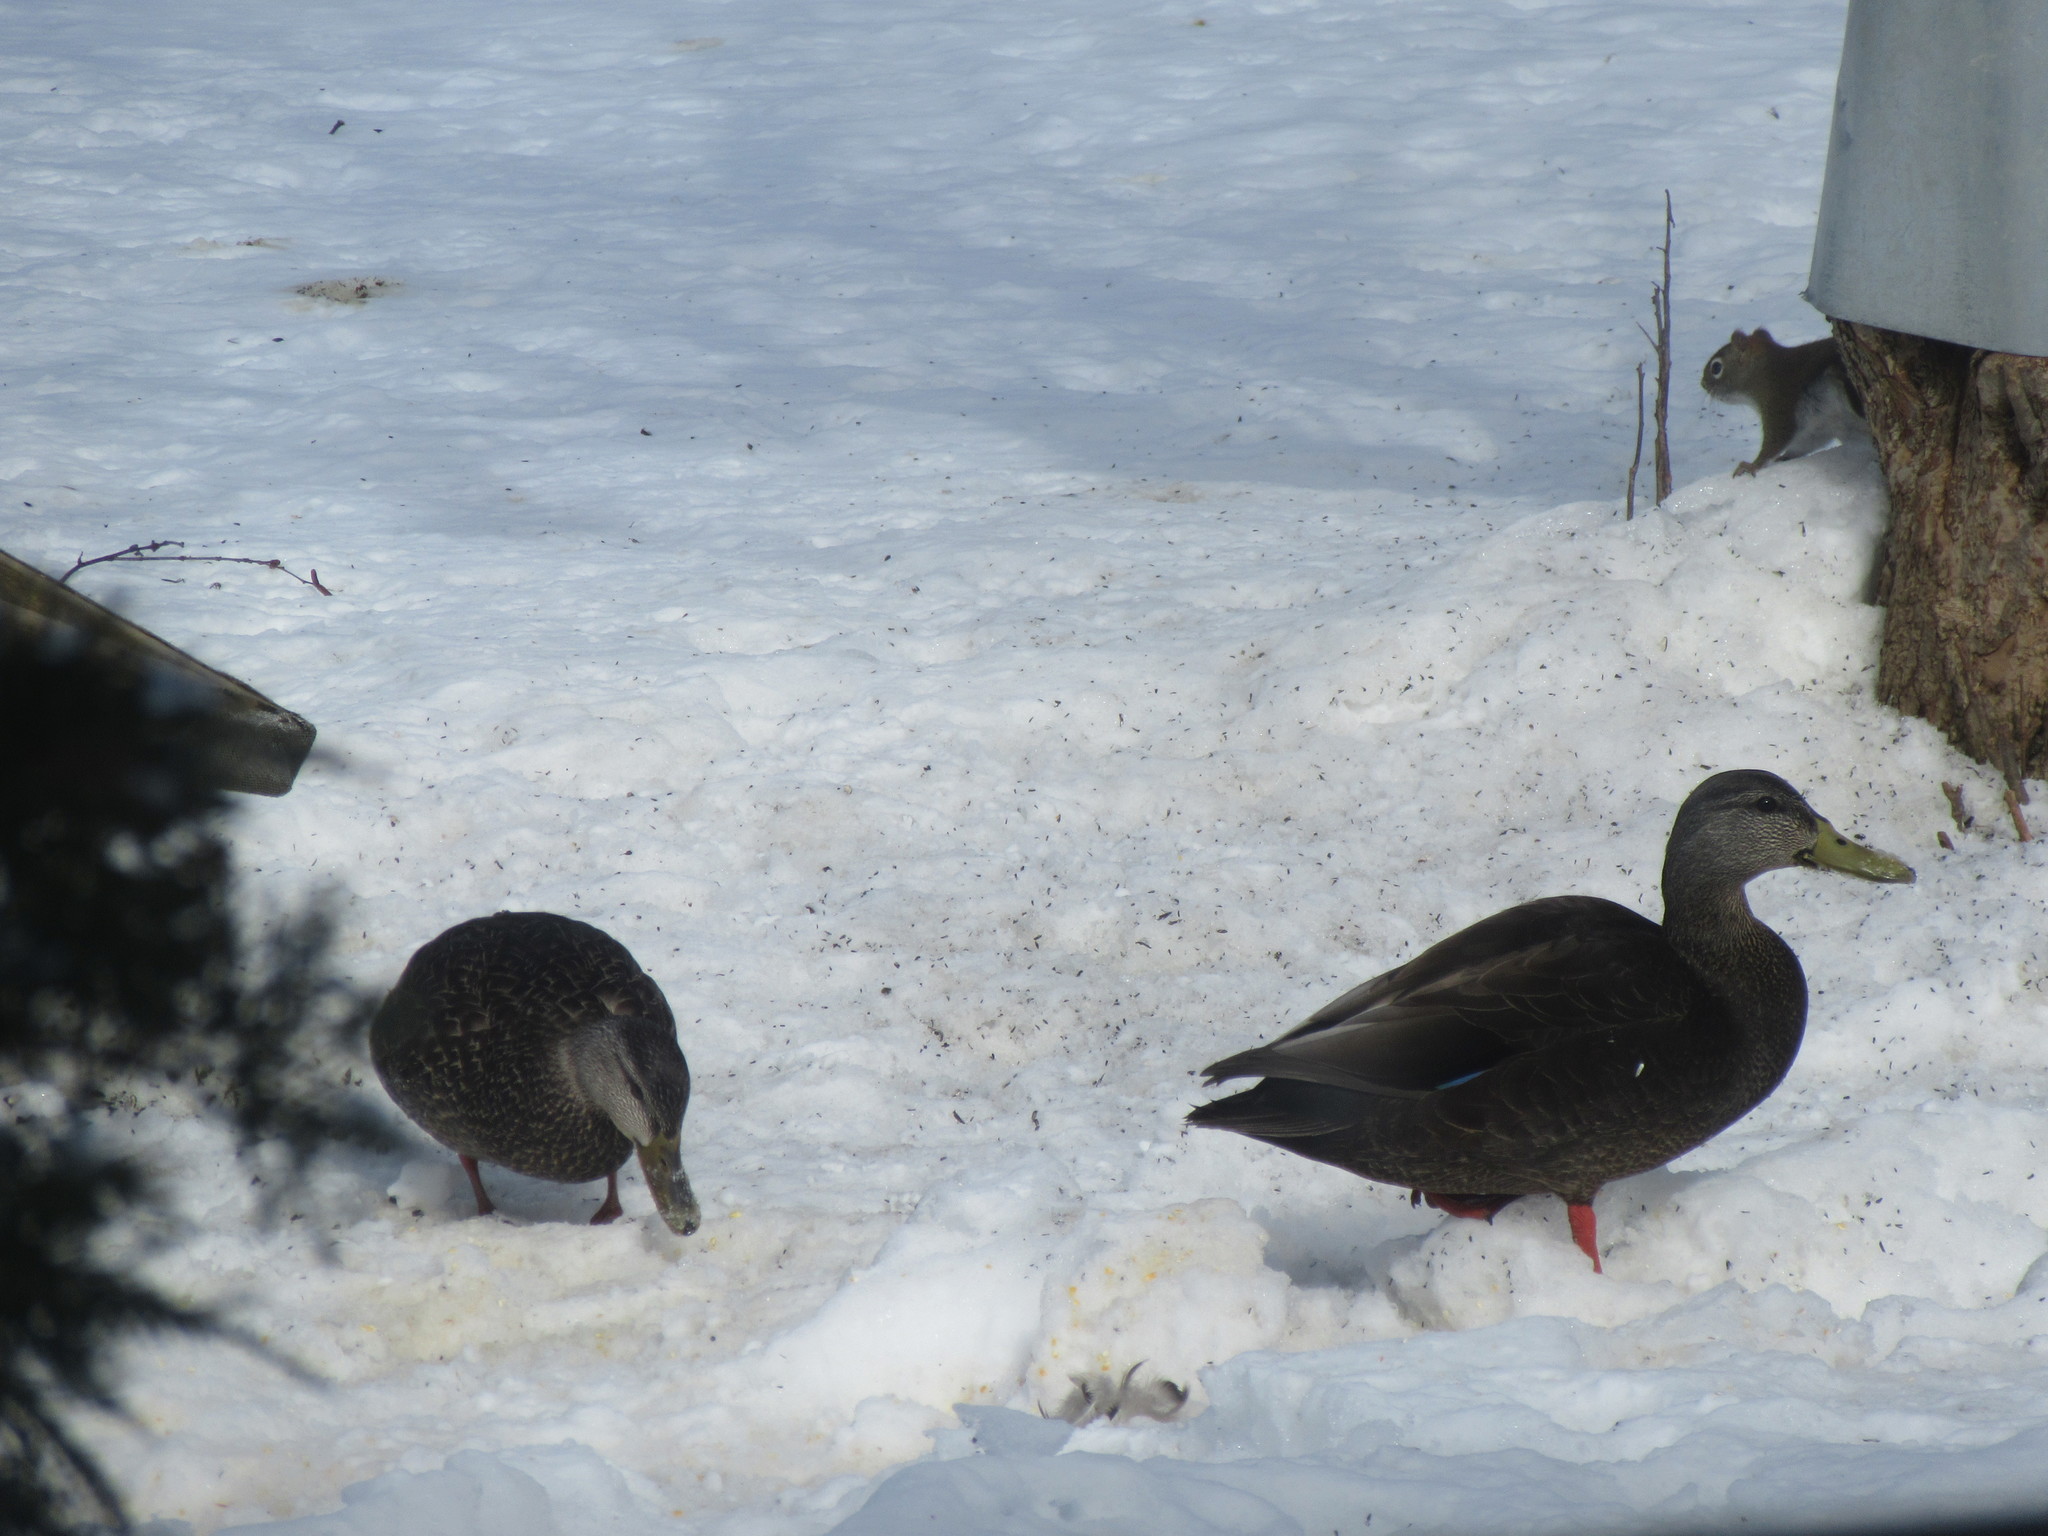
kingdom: Animalia
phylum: Chordata
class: Aves
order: Anseriformes
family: Anatidae
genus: Anas
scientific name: Anas rubripes
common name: American black duck
